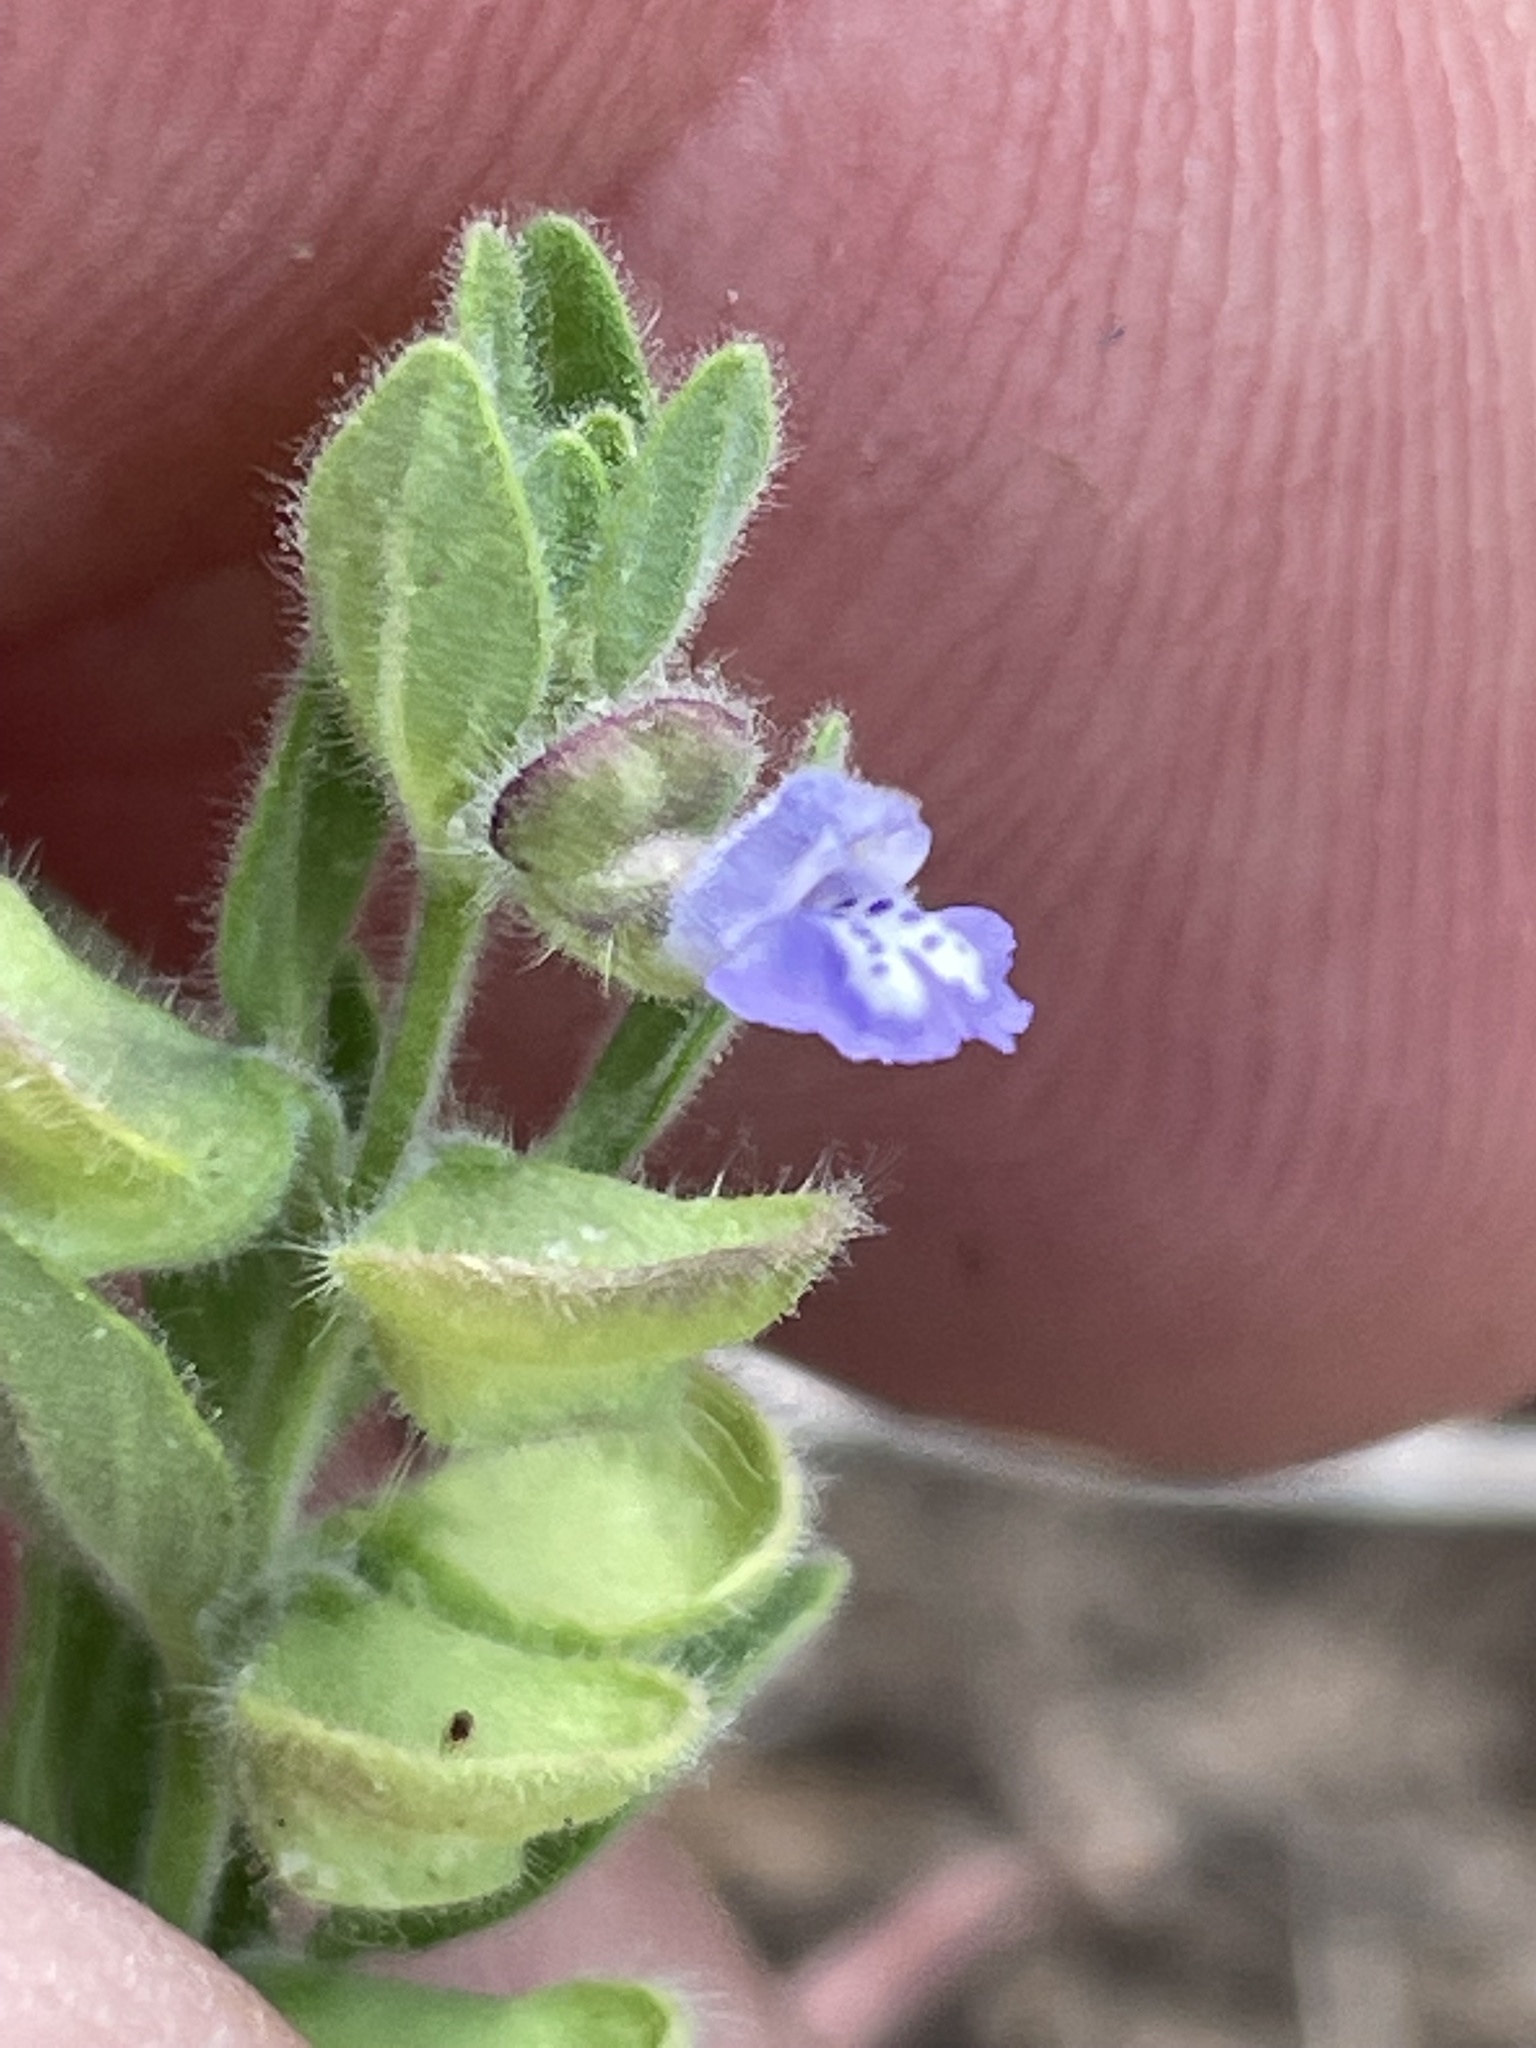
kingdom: Plantae
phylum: Tracheophyta
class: Magnoliopsida
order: Lamiales
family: Lamiaceae
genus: Scutellaria
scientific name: Scutellaria drummondii
